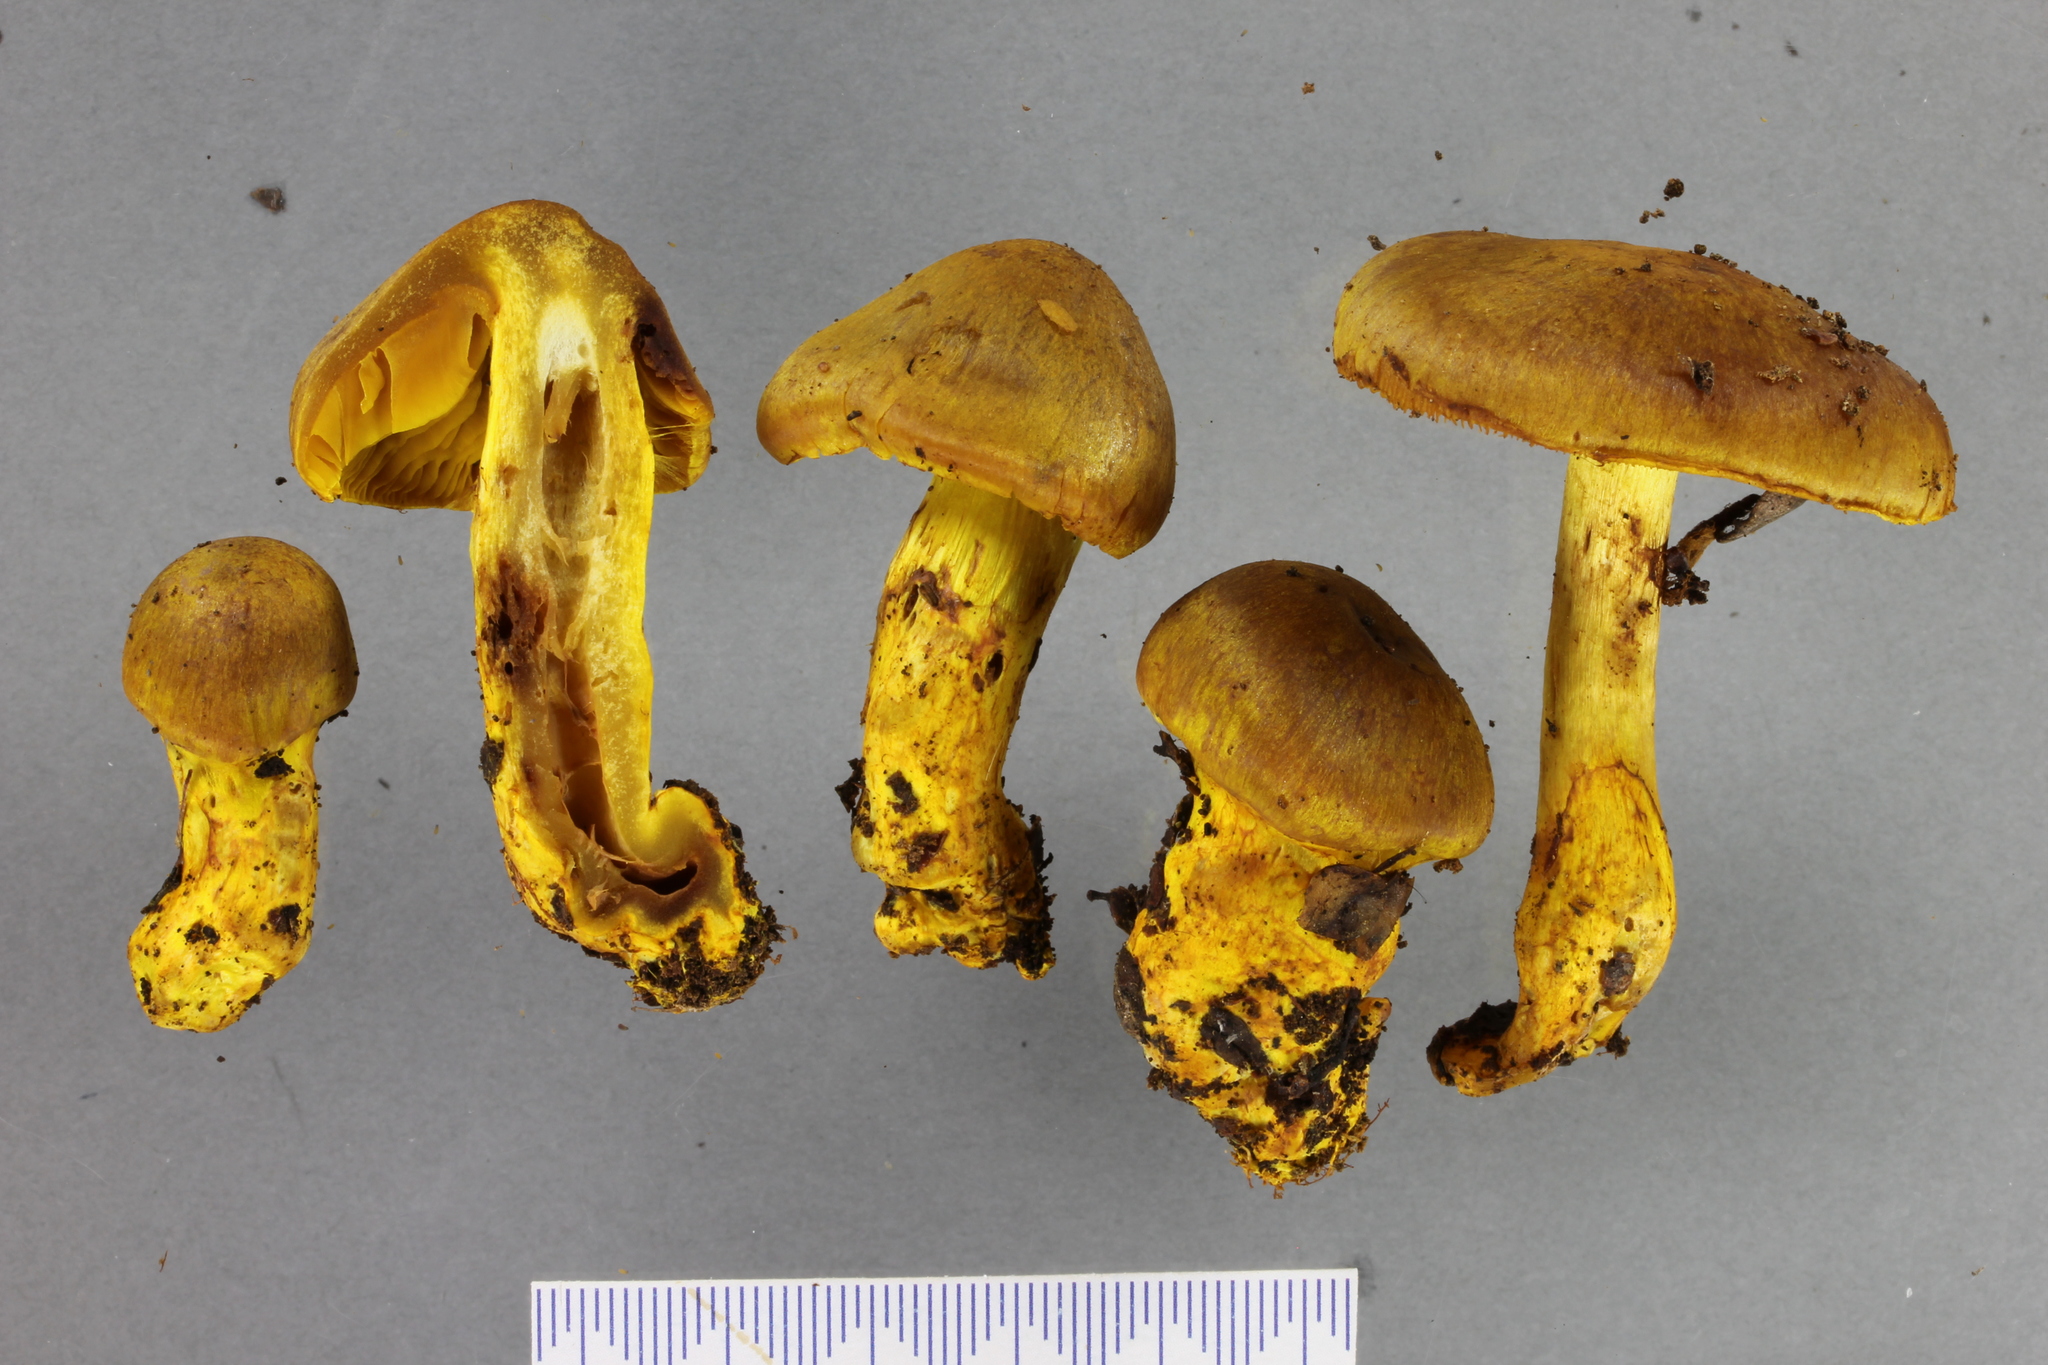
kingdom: Fungi
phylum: Basidiomycota
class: Agaricomycetes
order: Agaricales
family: Cortinariaceae
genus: Cortinarius
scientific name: Cortinarius canarius
